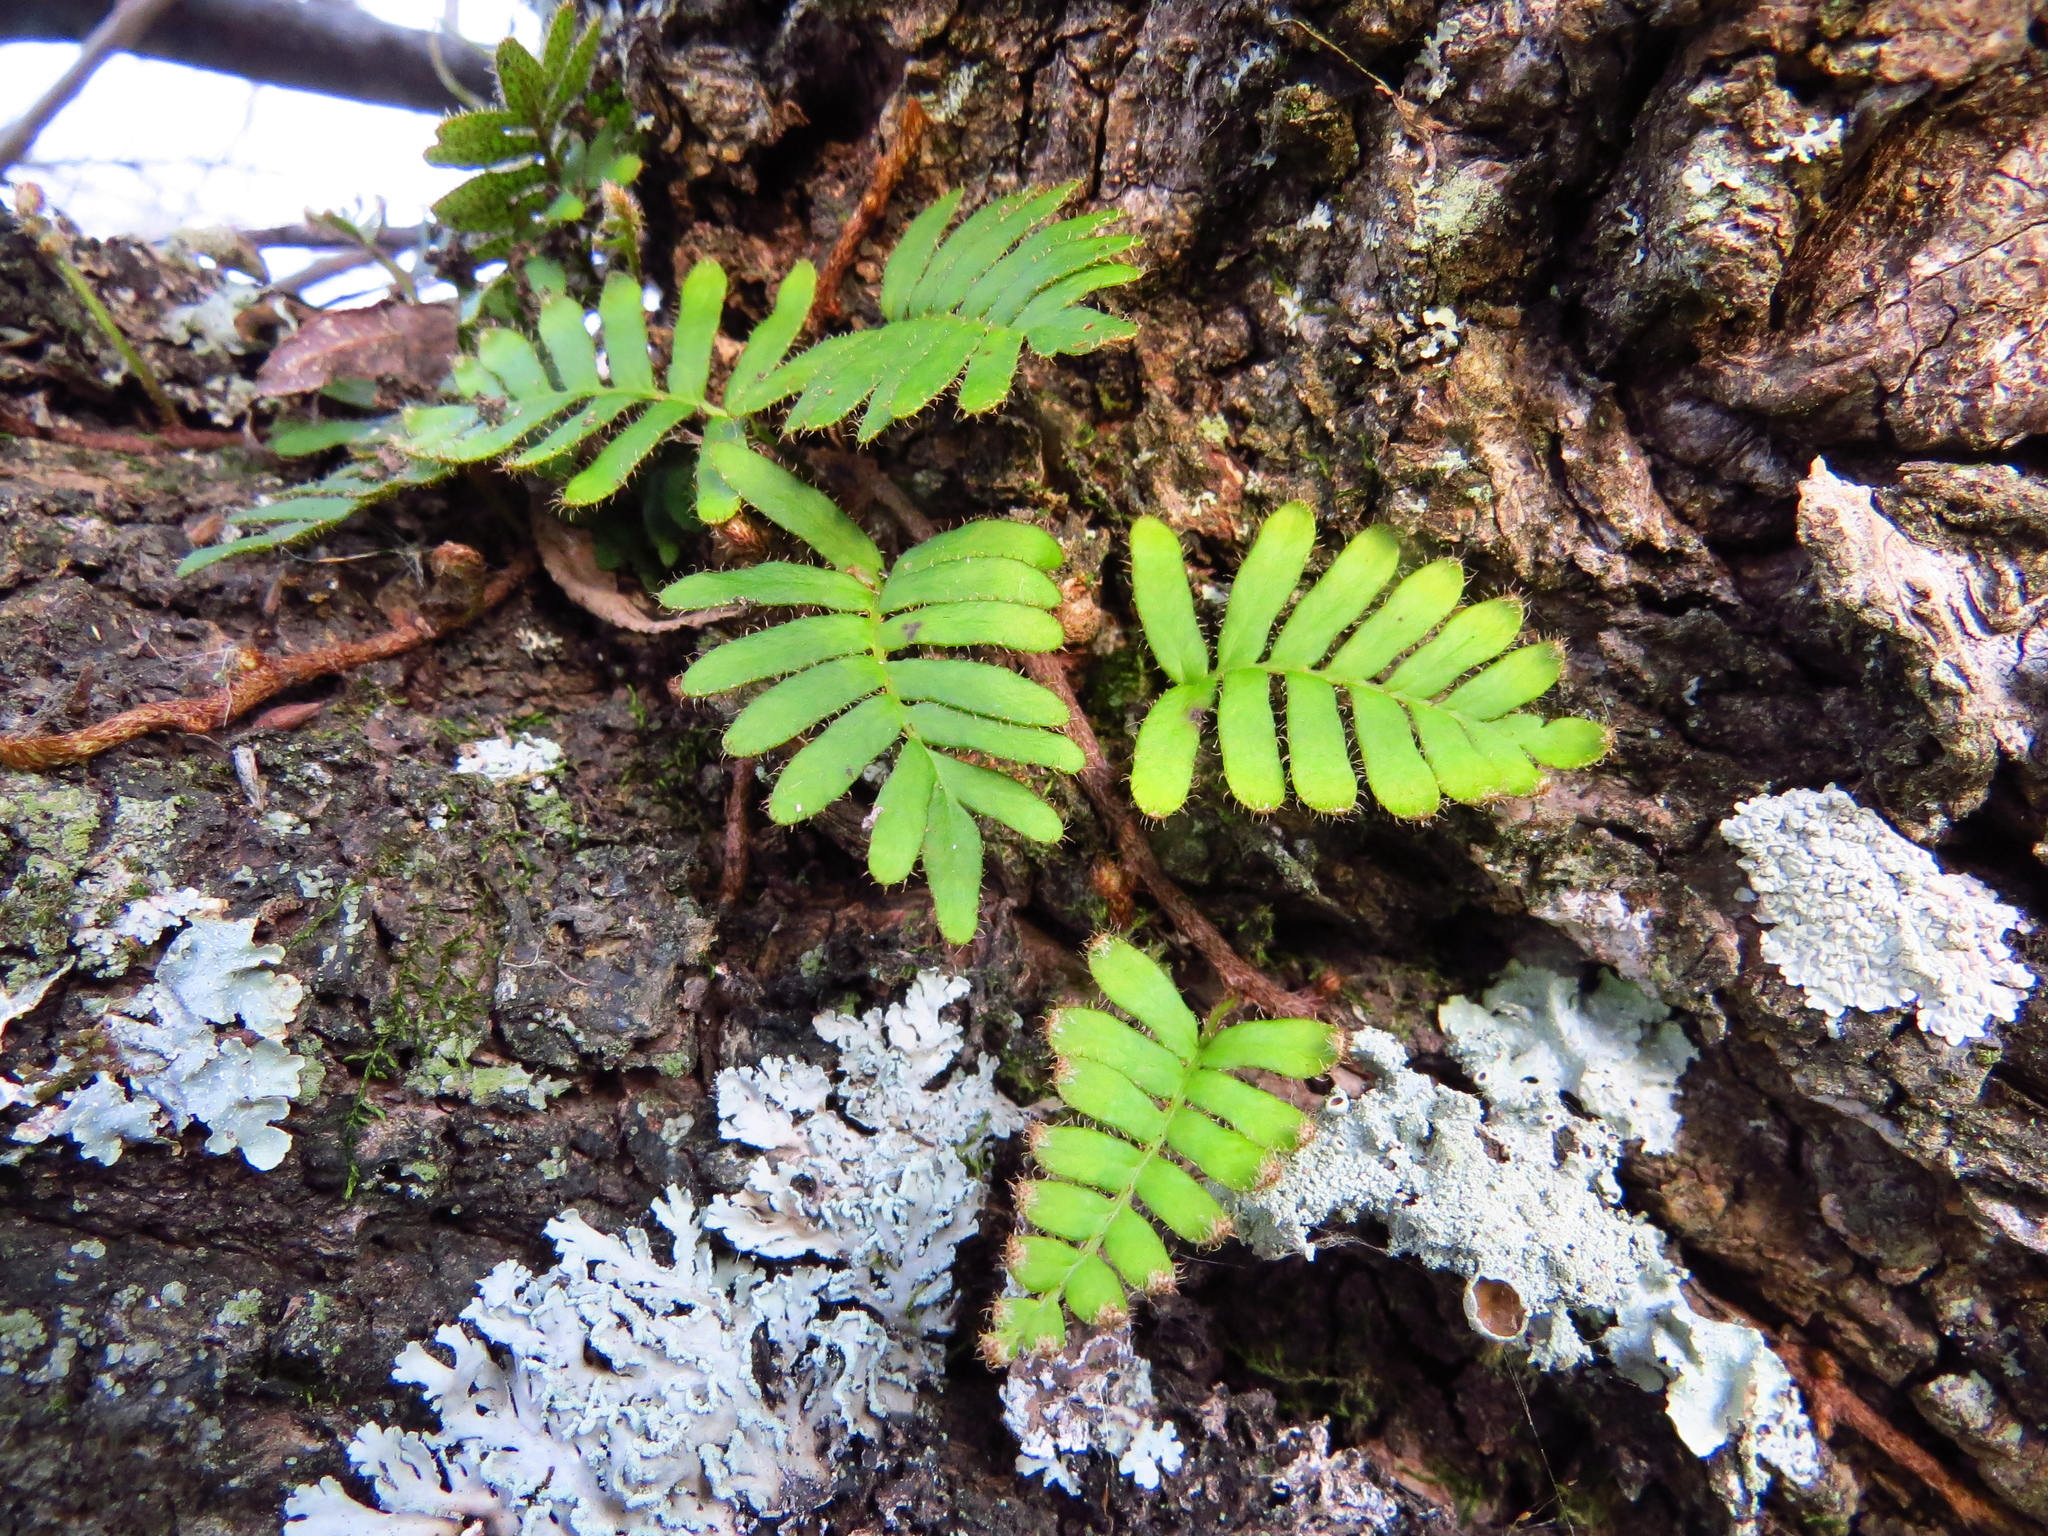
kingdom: Plantae
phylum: Tracheophyta
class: Polypodiopsida
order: Polypodiales
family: Polypodiaceae
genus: Pleopeltis
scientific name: Pleopeltis minima
